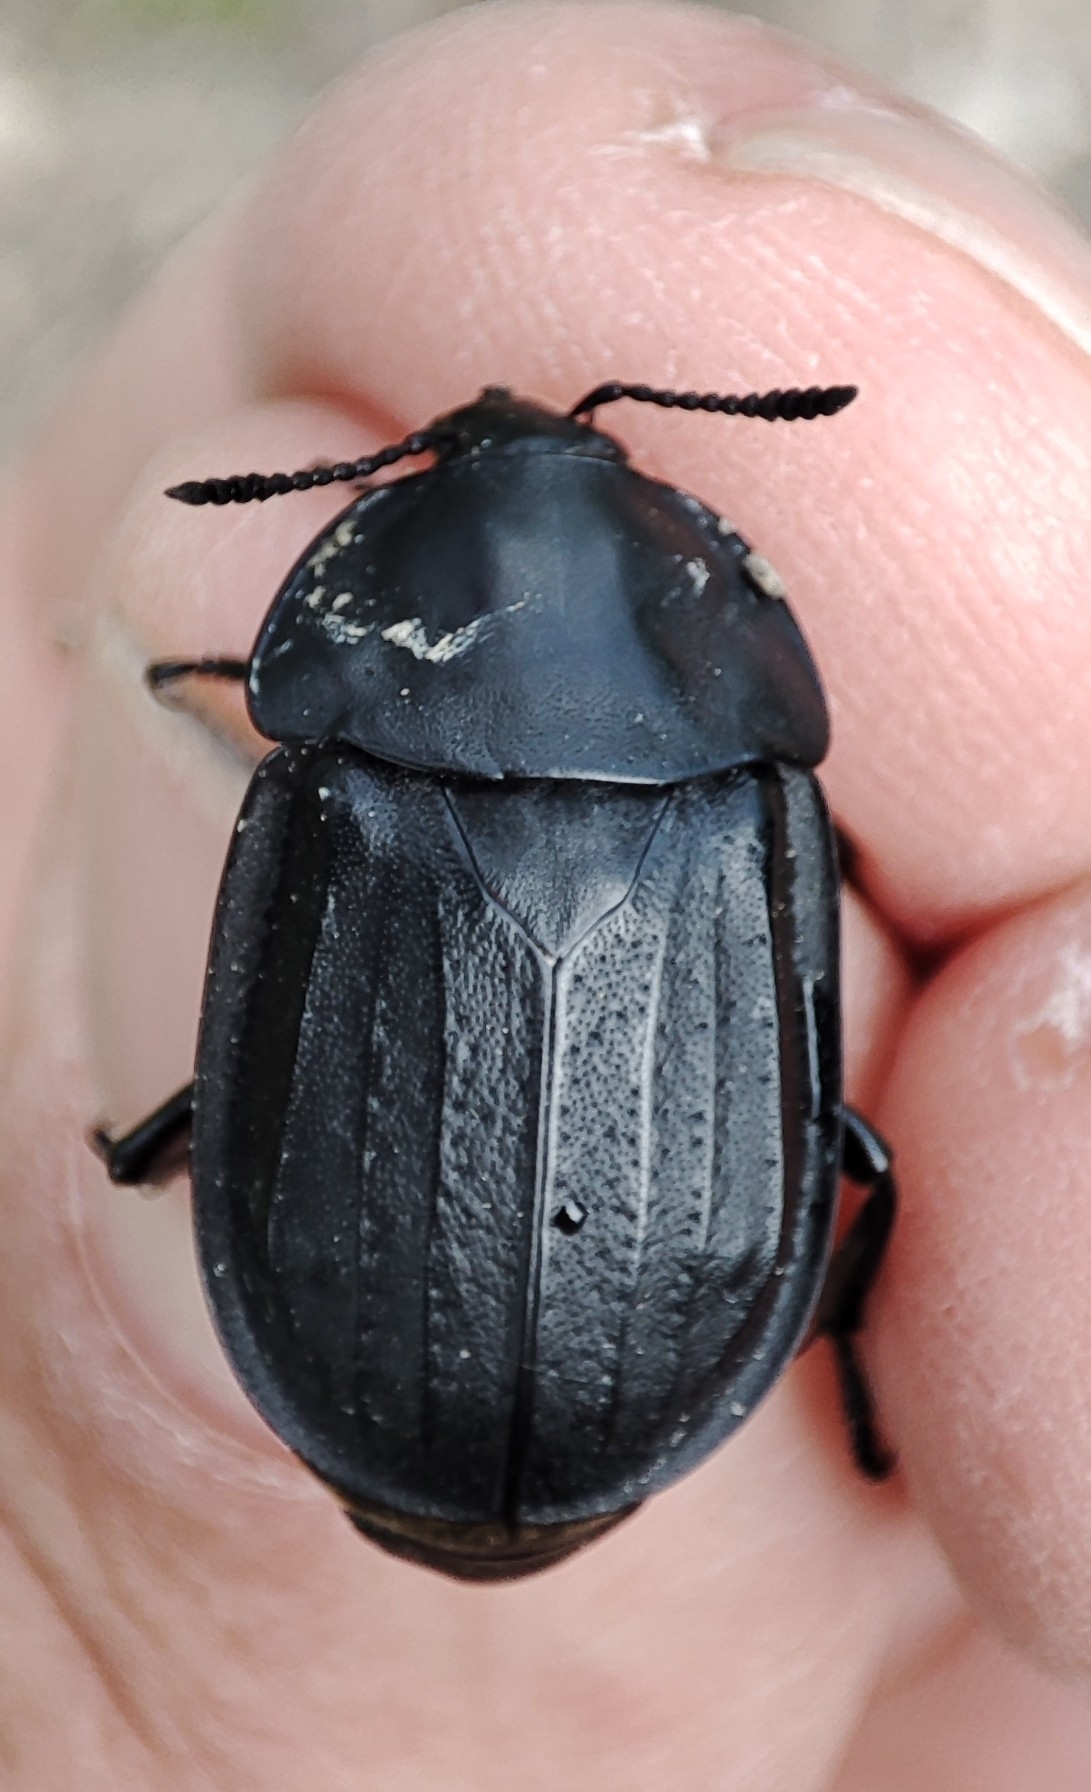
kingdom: Animalia
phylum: Arthropoda
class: Insecta
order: Coleoptera
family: Staphylinidae
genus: Silpha
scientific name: Silpha olivieri
